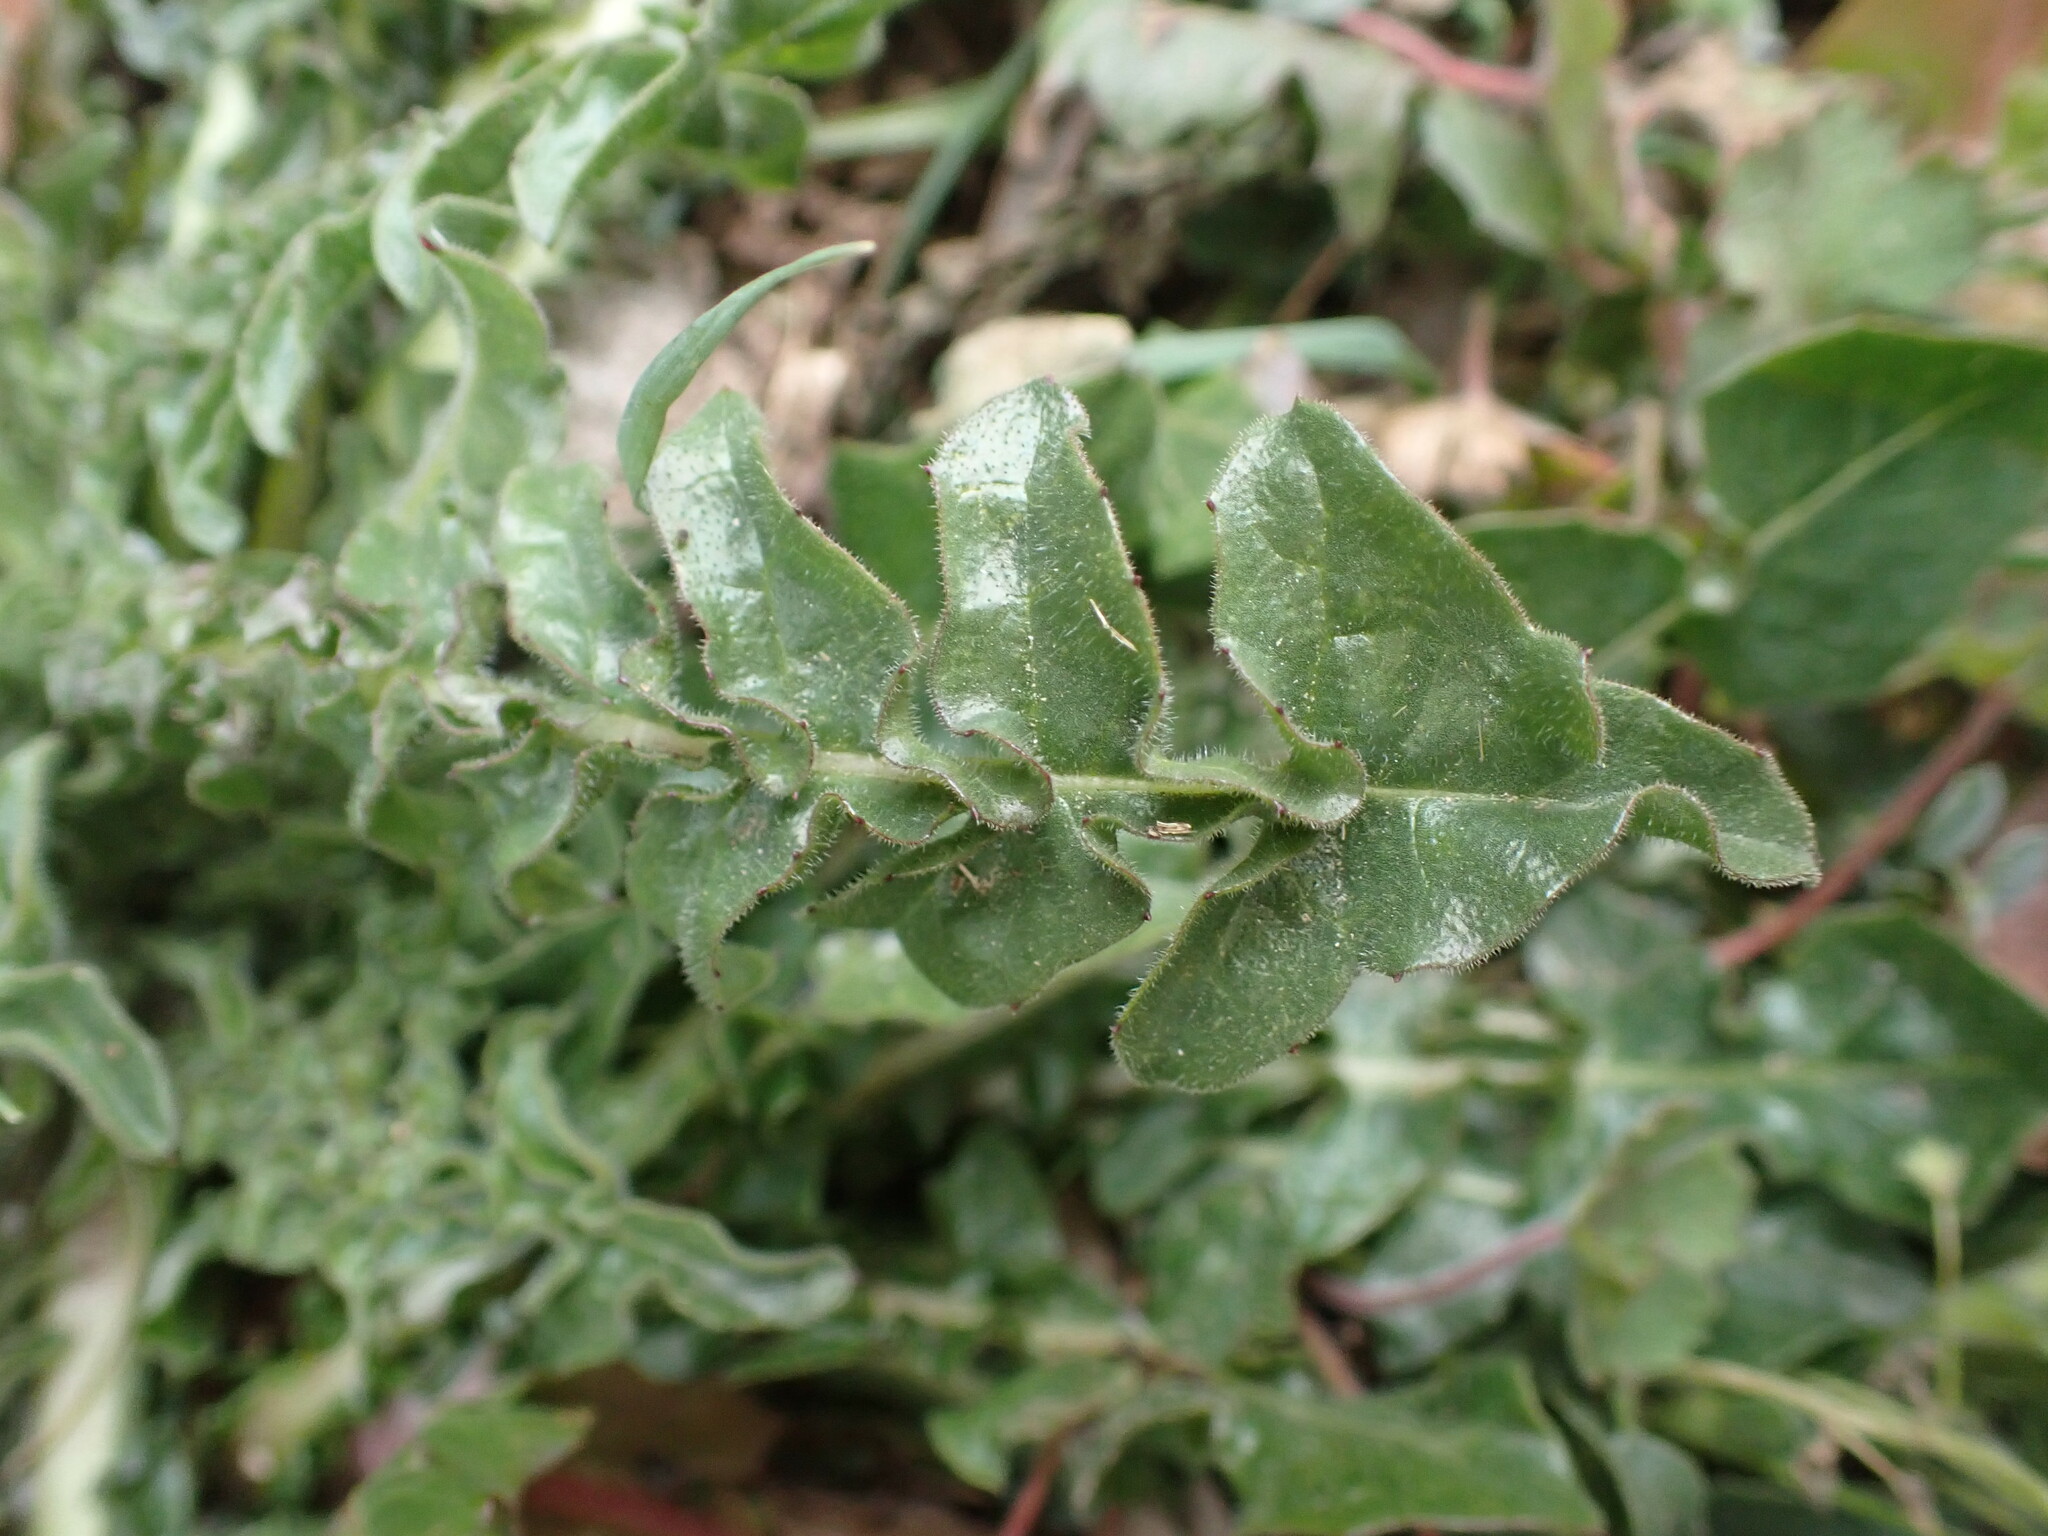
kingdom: Plantae
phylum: Tracheophyta
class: Magnoliopsida
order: Asterales
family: Asteraceae
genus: Urospermum
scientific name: Urospermum dalechampii
